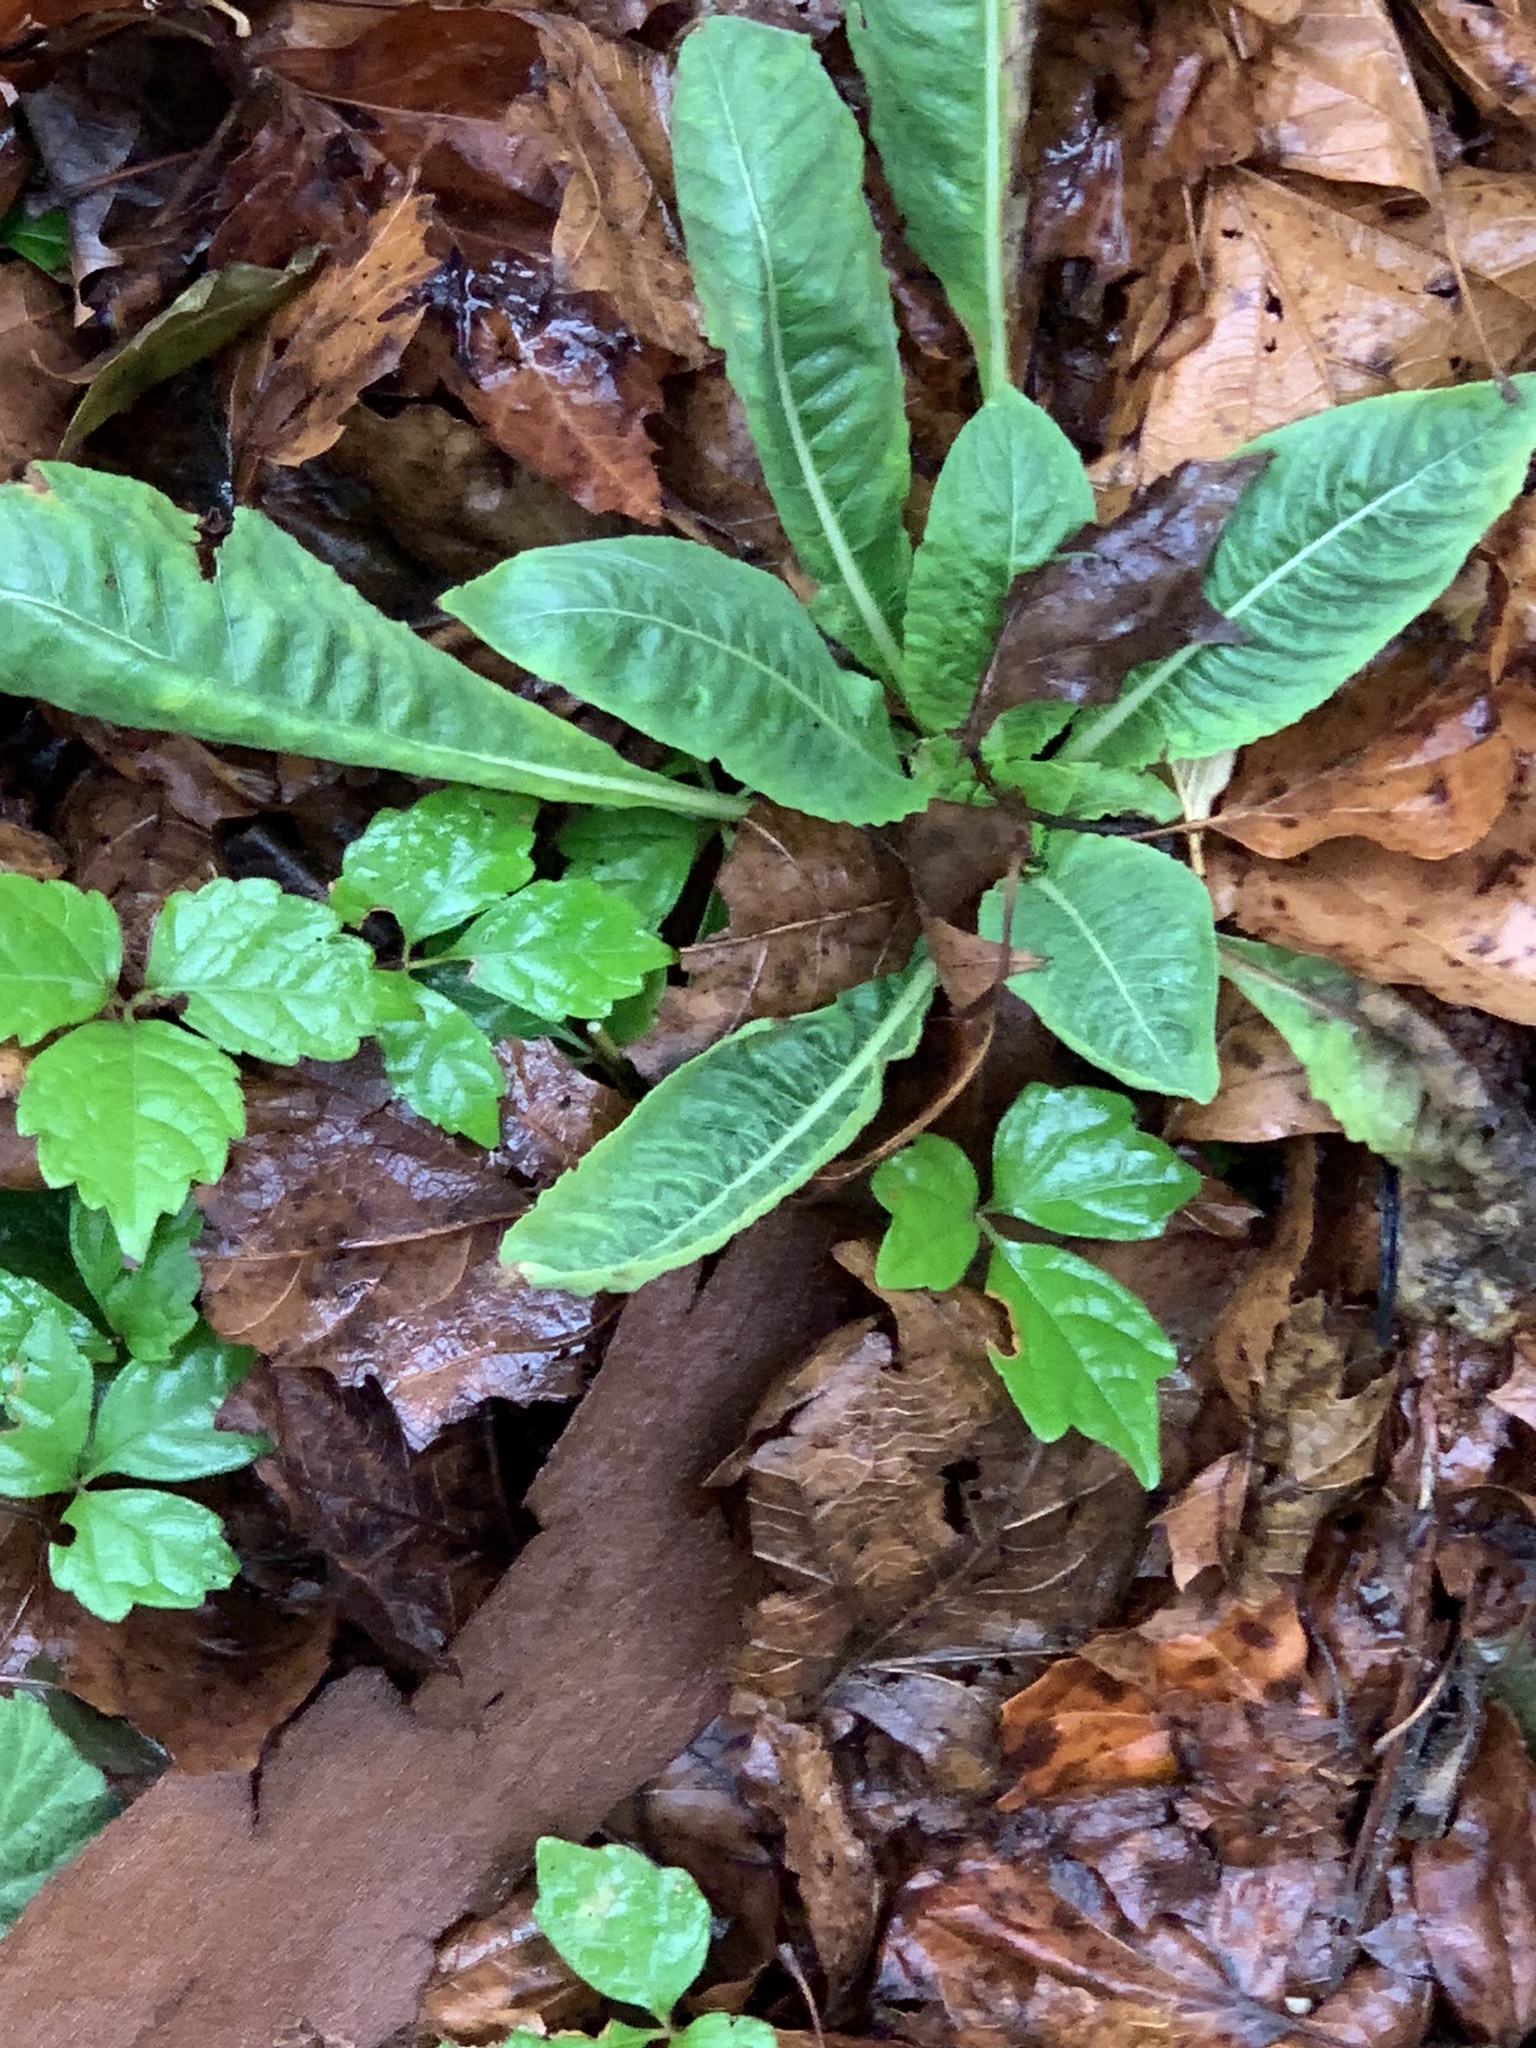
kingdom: Plantae
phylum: Tracheophyta
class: Magnoliopsida
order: Myrtales
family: Onagraceae
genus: Oenothera
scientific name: Oenothera biennis
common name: Common evening-primrose
